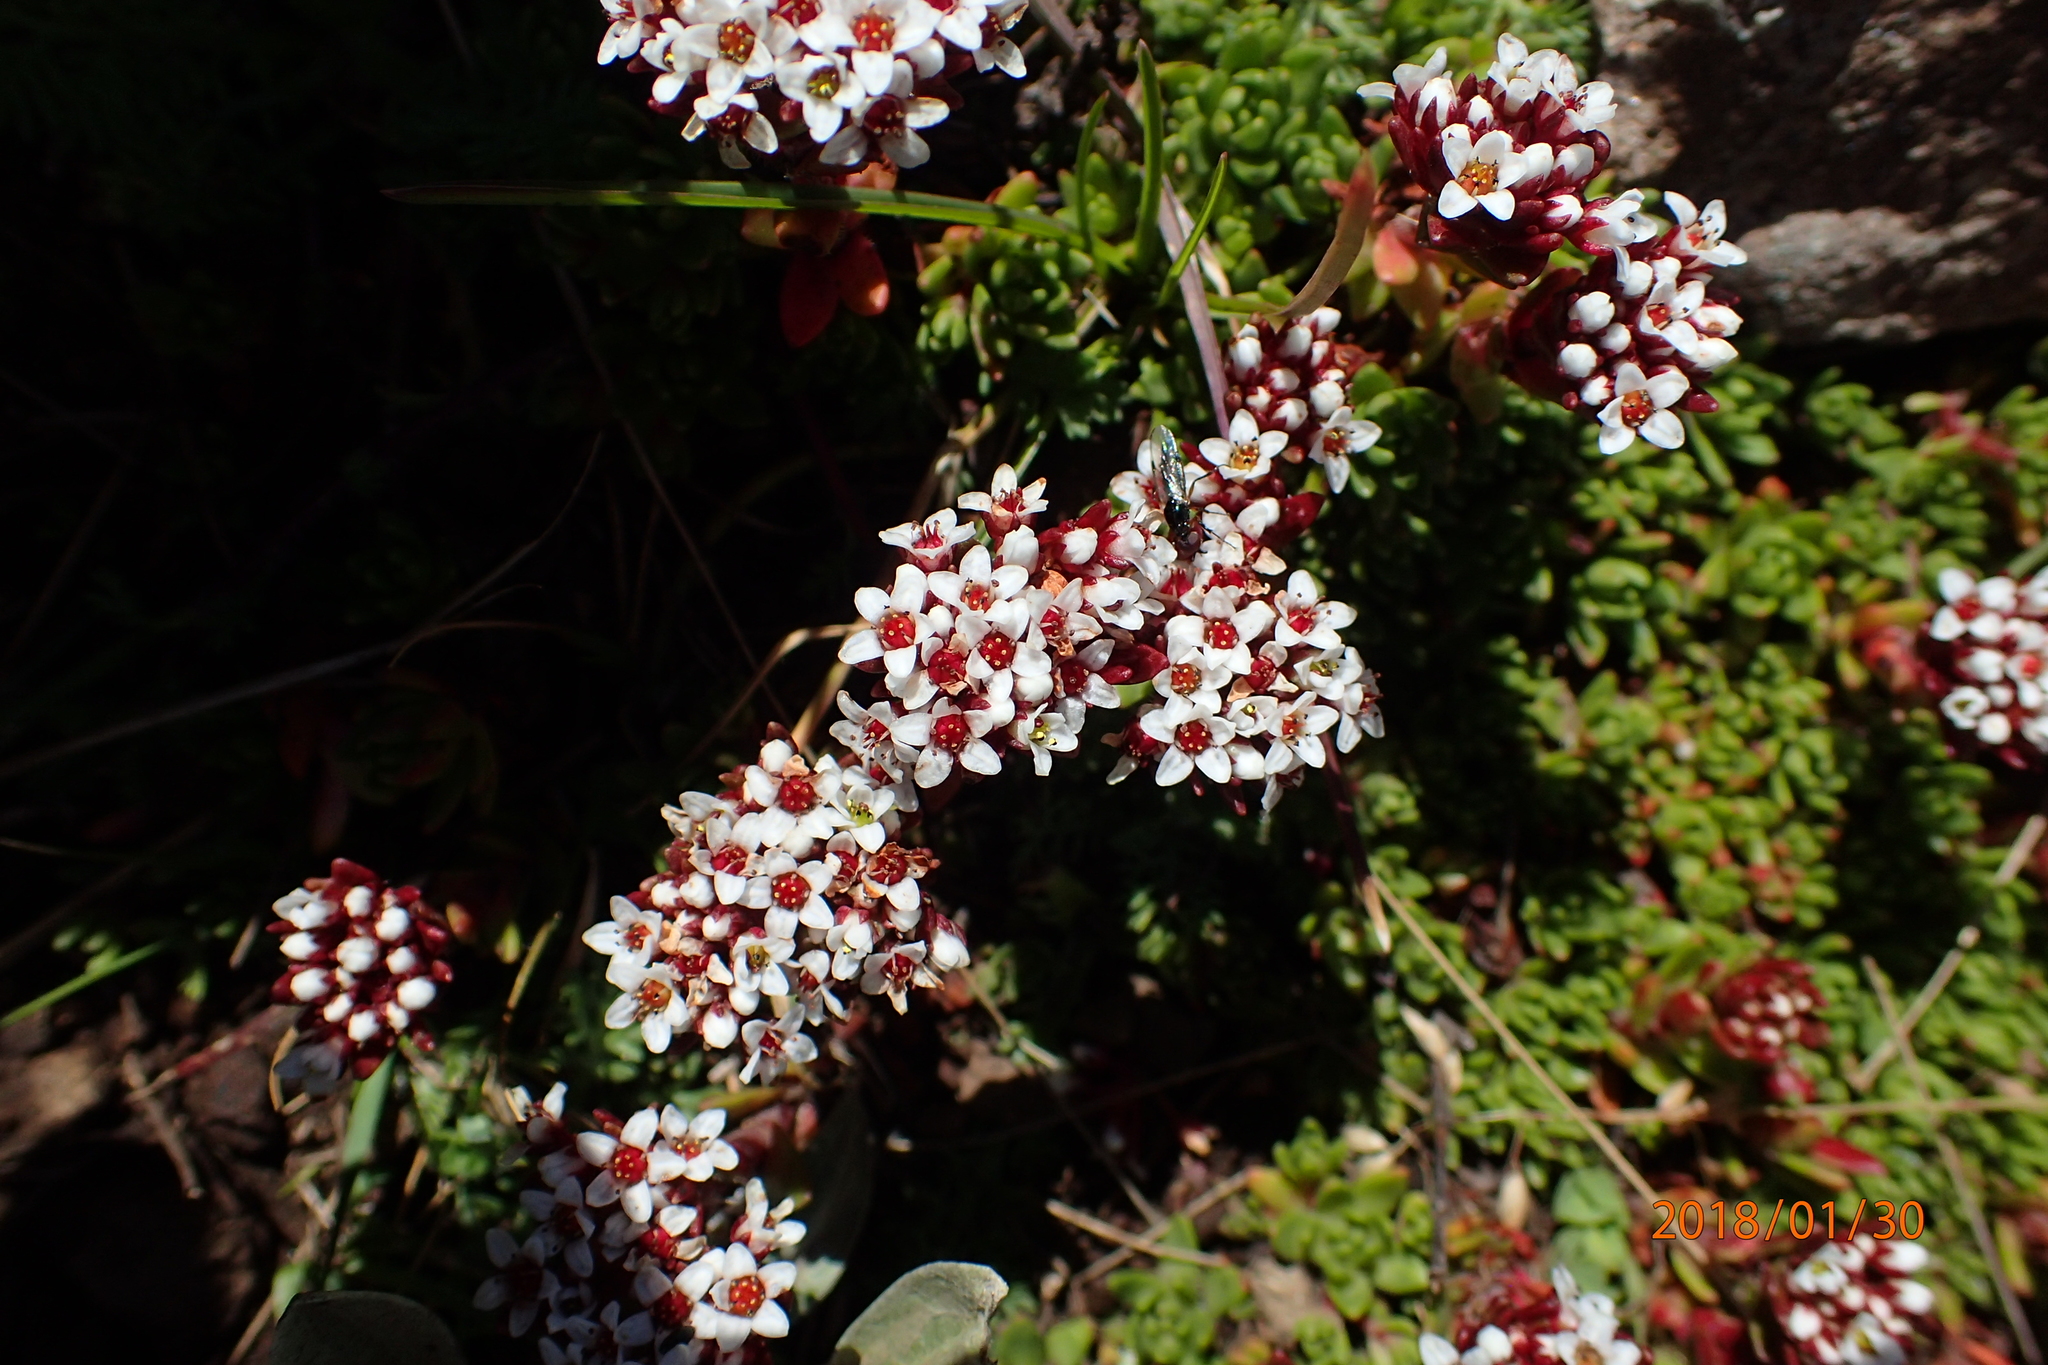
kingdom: Plantae
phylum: Tracheophyta
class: Magnoliopsida
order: Saxifragales
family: Crassulaceae
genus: Crassula
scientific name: Crassula natalensis
